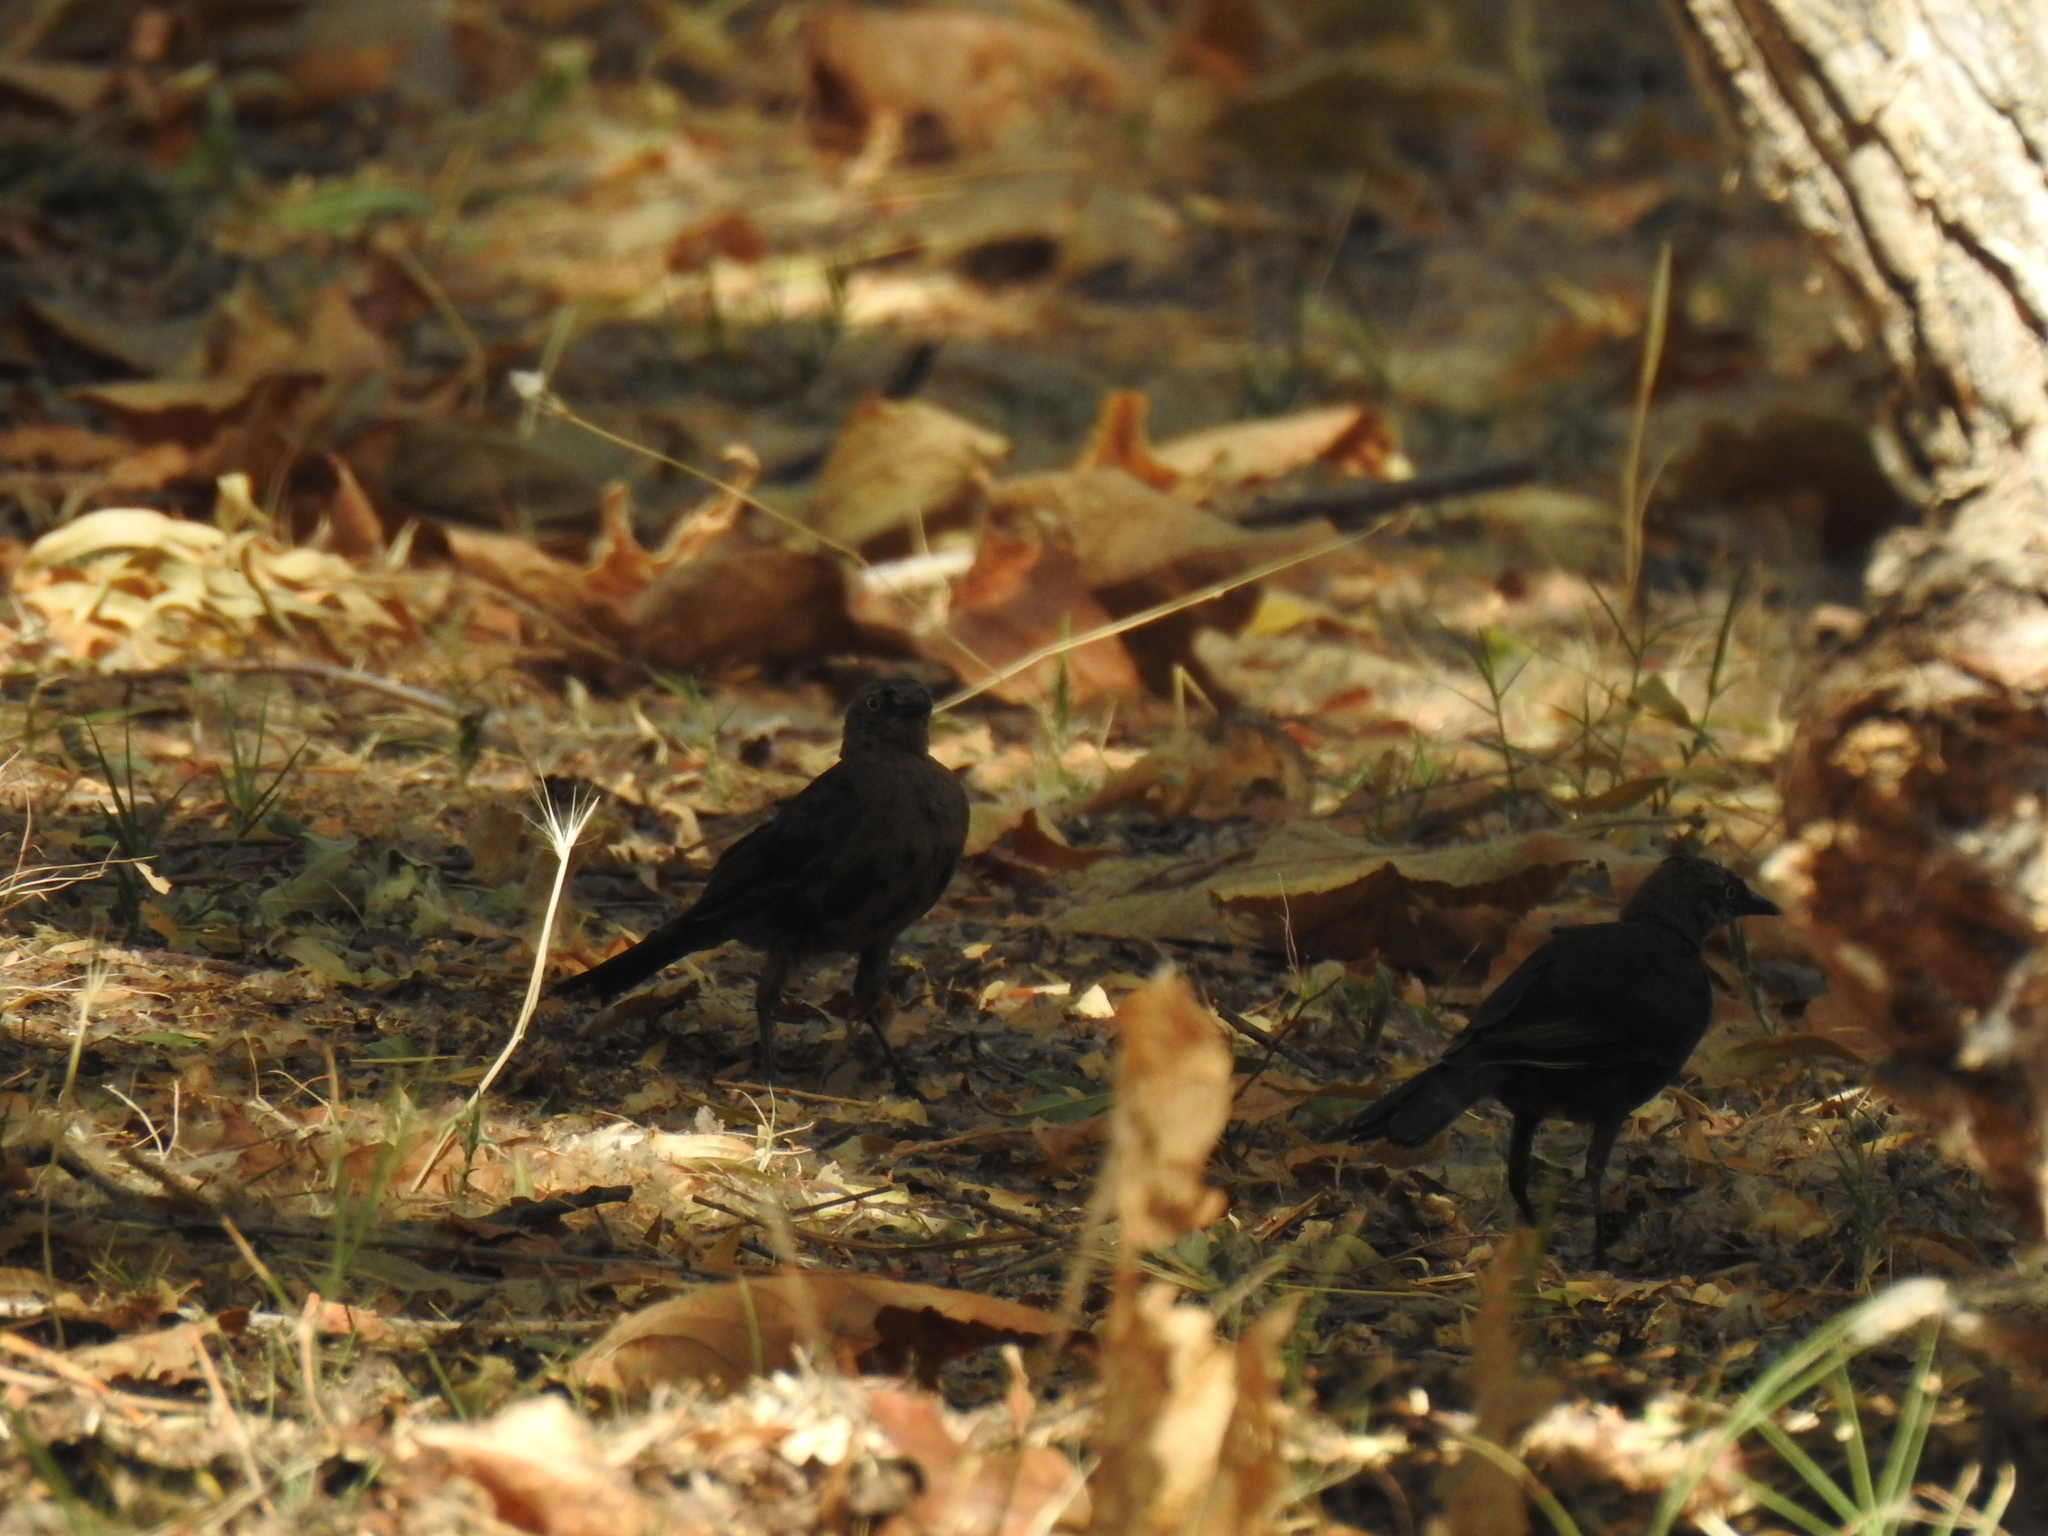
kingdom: Animalia
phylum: Chordata
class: Aves
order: Passeriformes
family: Icteridae
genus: Euphagus
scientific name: Euphagus cyanocephalus
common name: Brewer's blackbird
